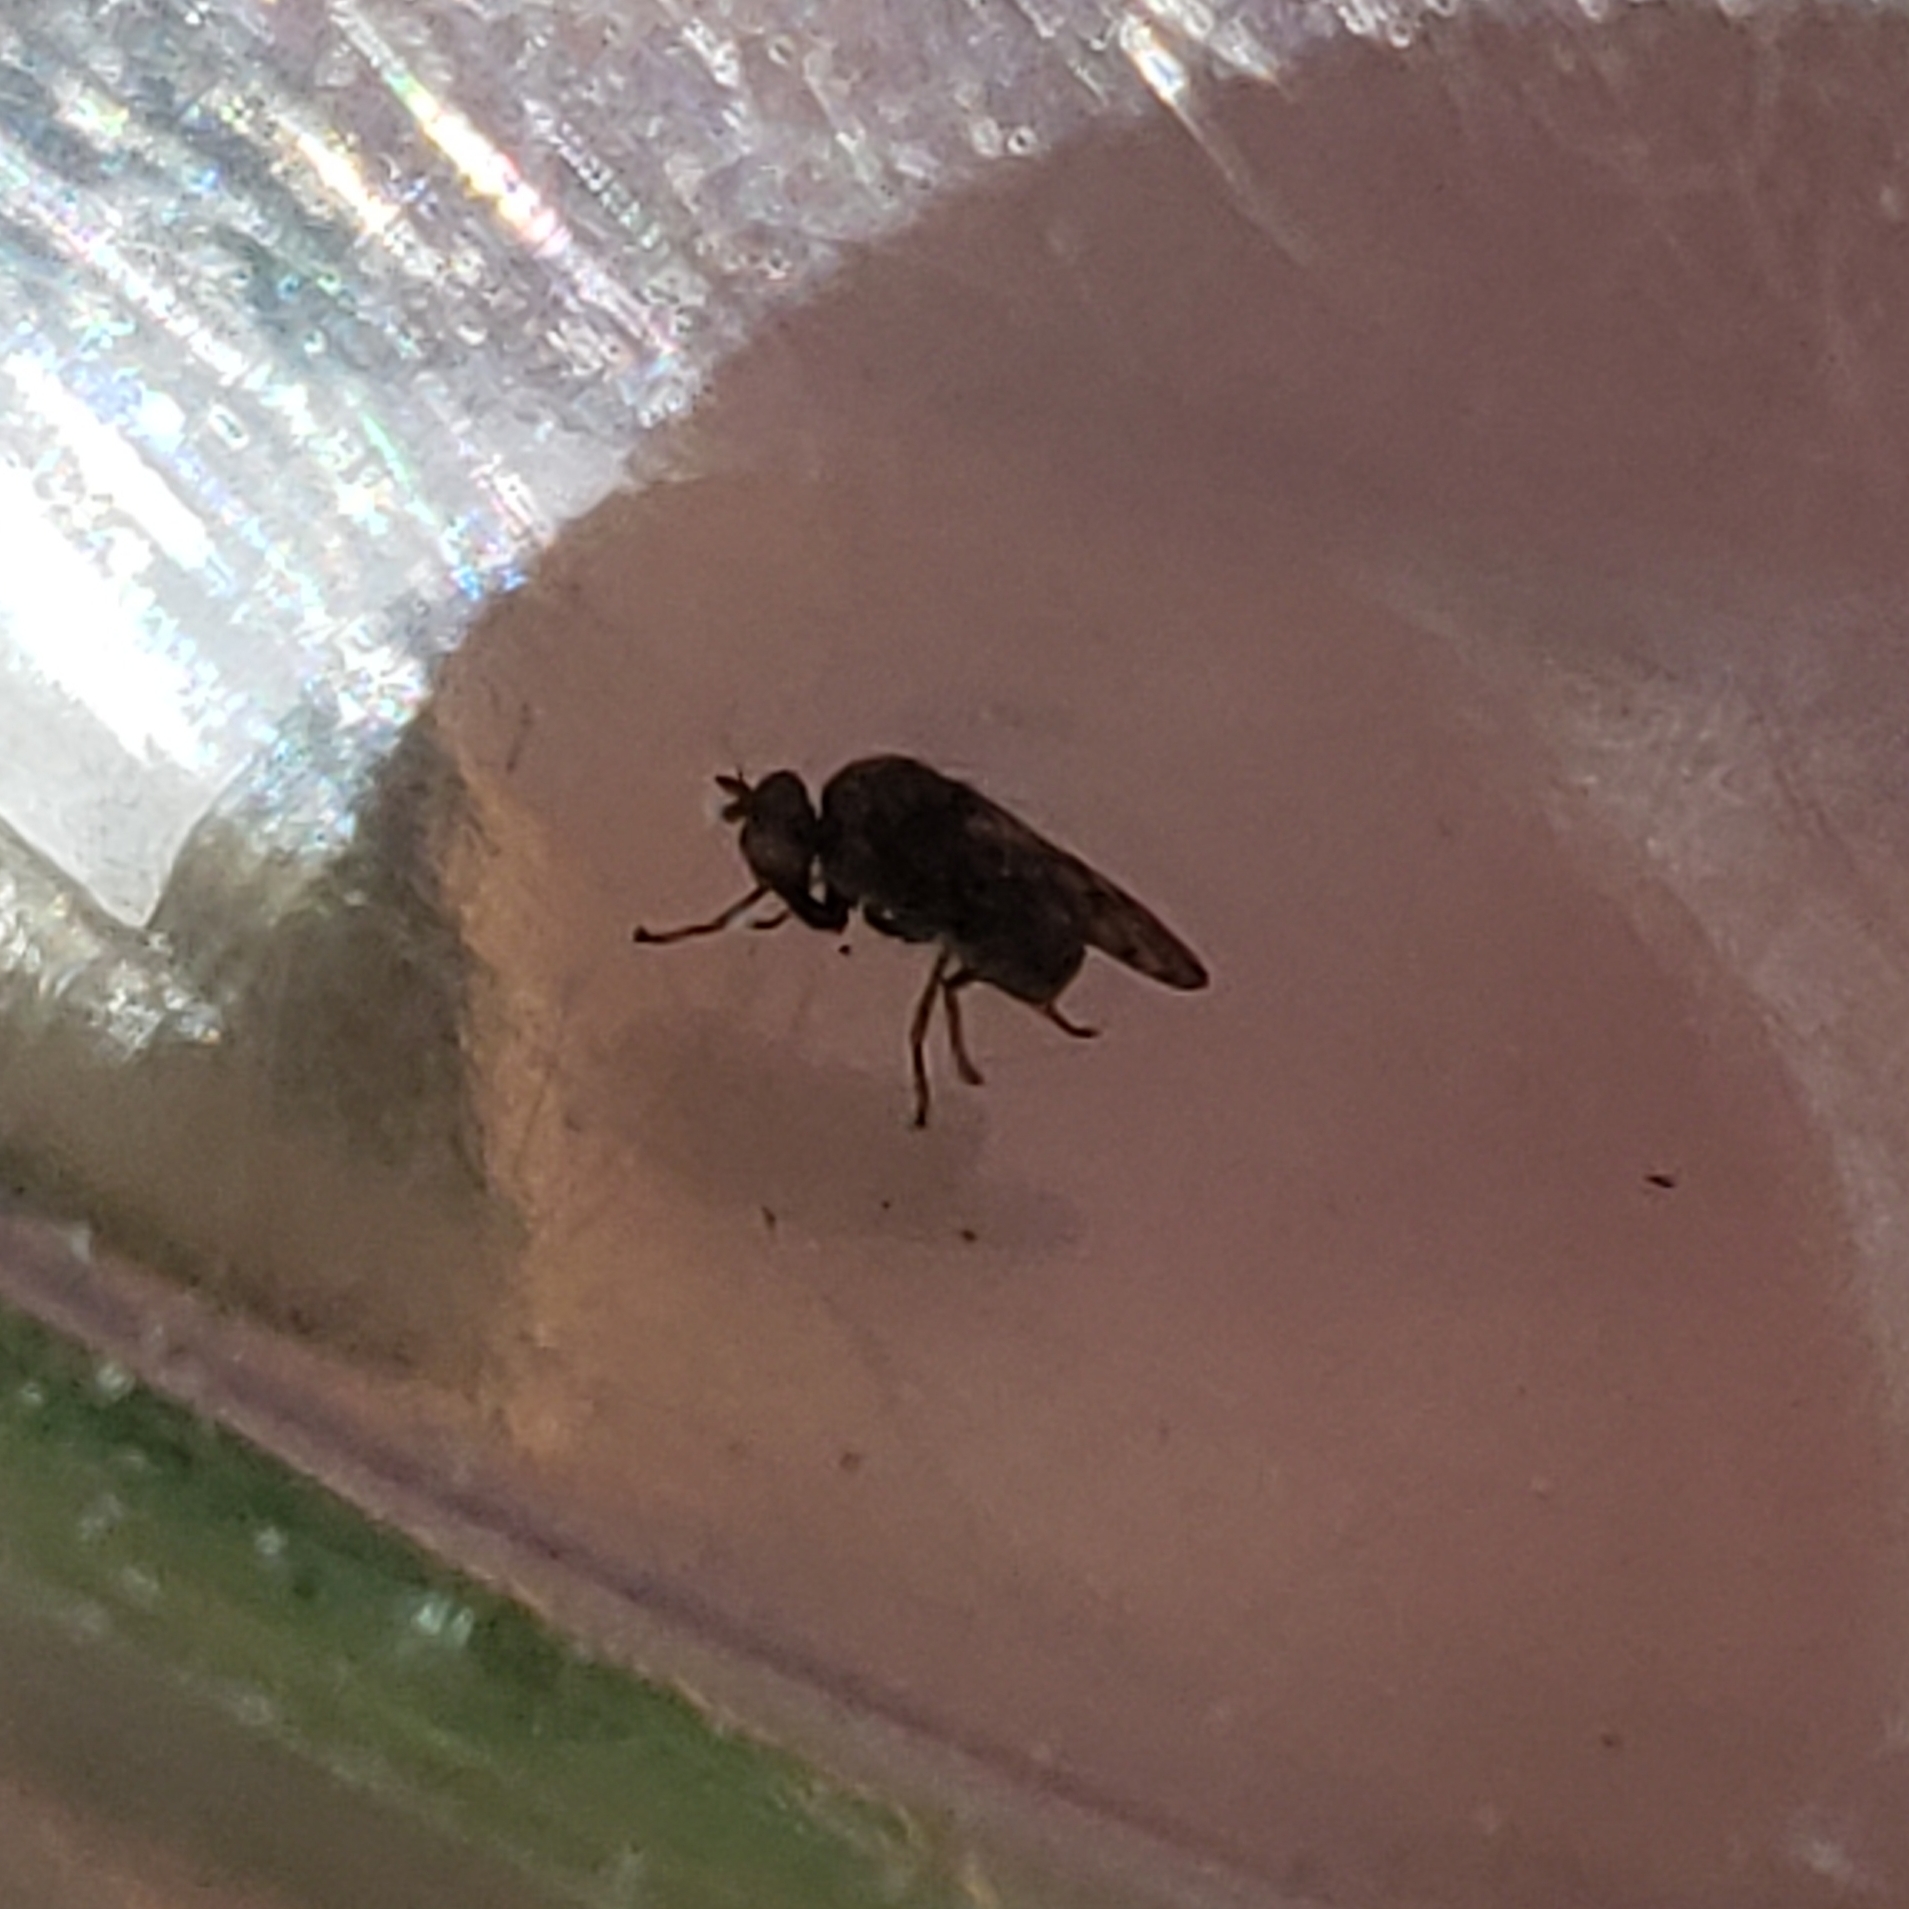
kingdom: Animalia
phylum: Arthropoda
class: Insecta
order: Diptera
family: Ephydridae
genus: Gastrops
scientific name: Gastrops nebulosus
